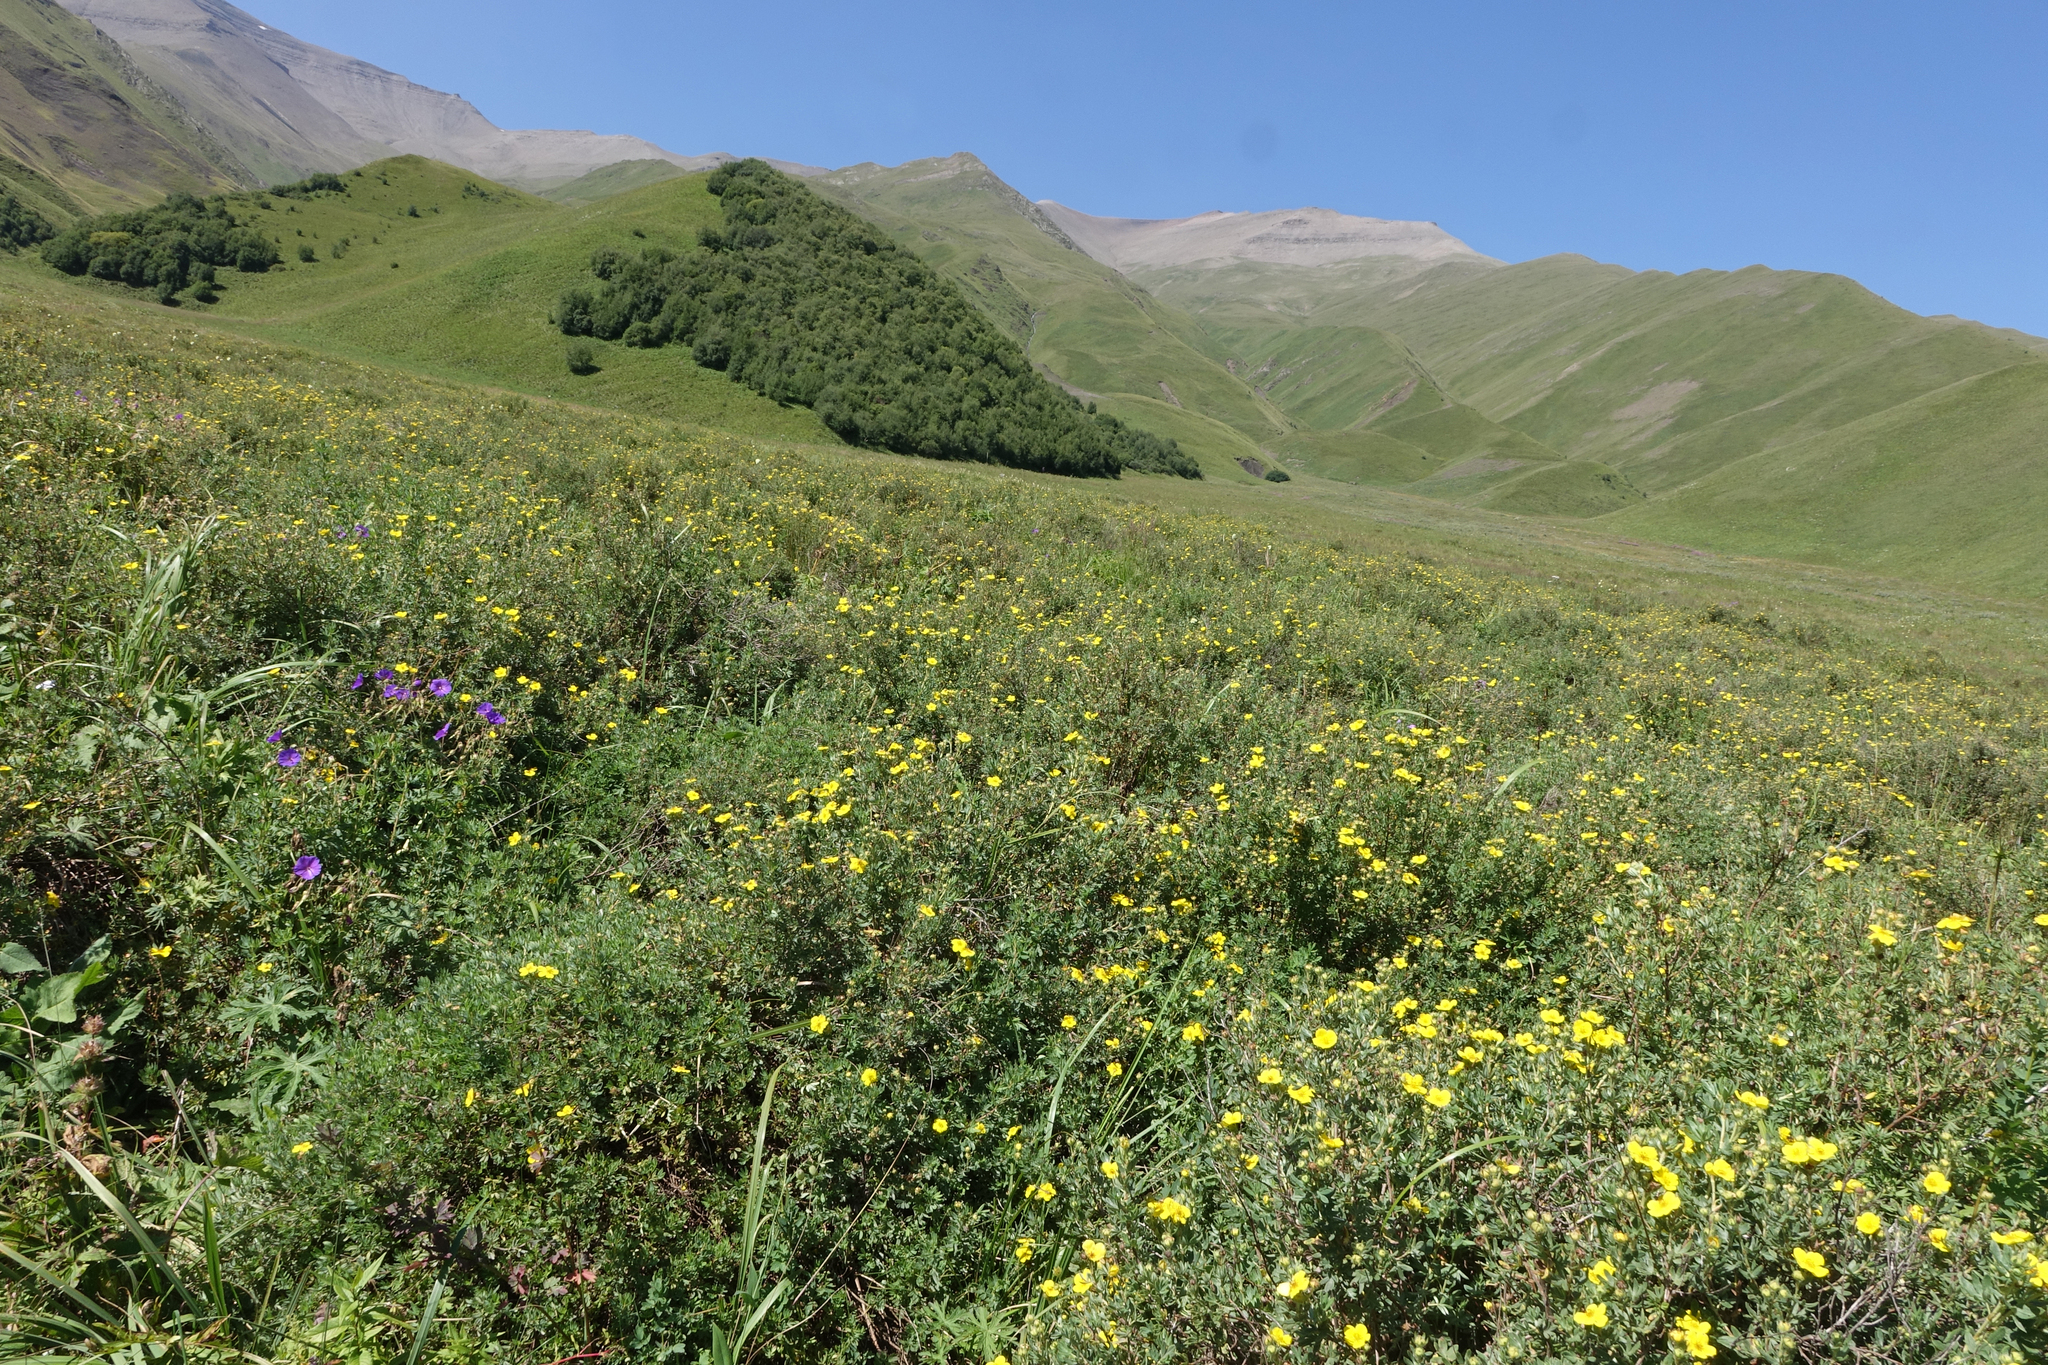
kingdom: Plantae
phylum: Tracheophyta
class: Magnoliopsida
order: Rosales
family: Rosaceae
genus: Dasiphora
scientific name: Dasiphora fruticosa
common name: Shrubby cinquefoil
